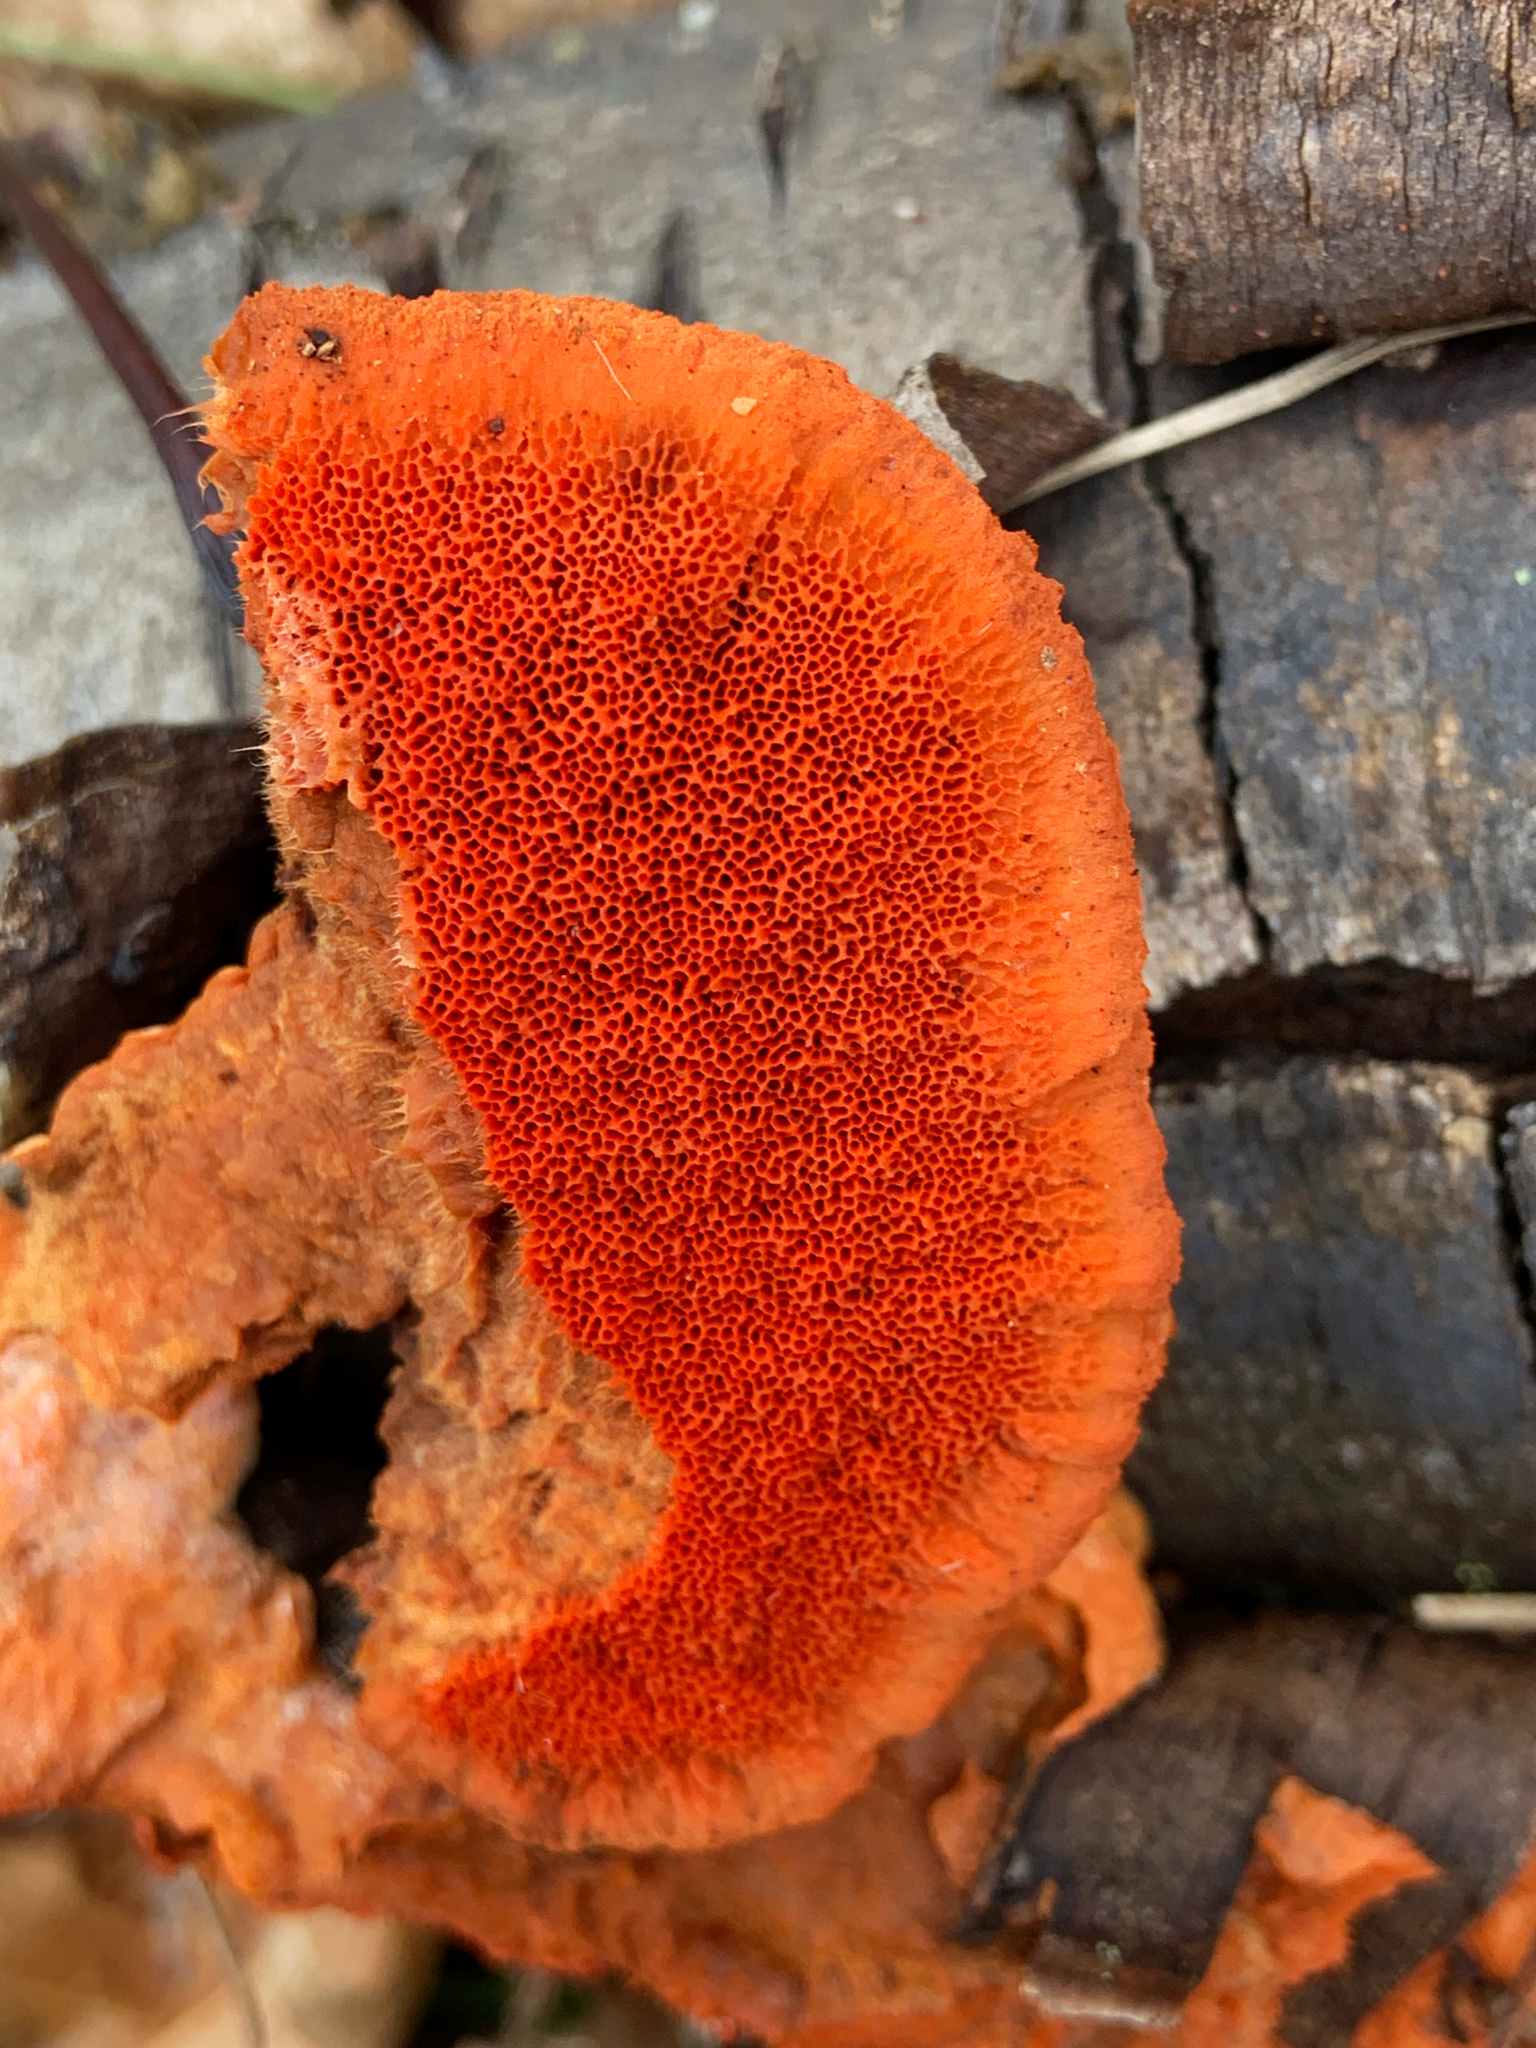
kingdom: Fungi
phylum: Basidiomycota
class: Agaricomycetes
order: Polyporales
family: Polyporaceae
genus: Trametes
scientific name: Trametes cinnabarina
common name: Northern cinnabar polypore
